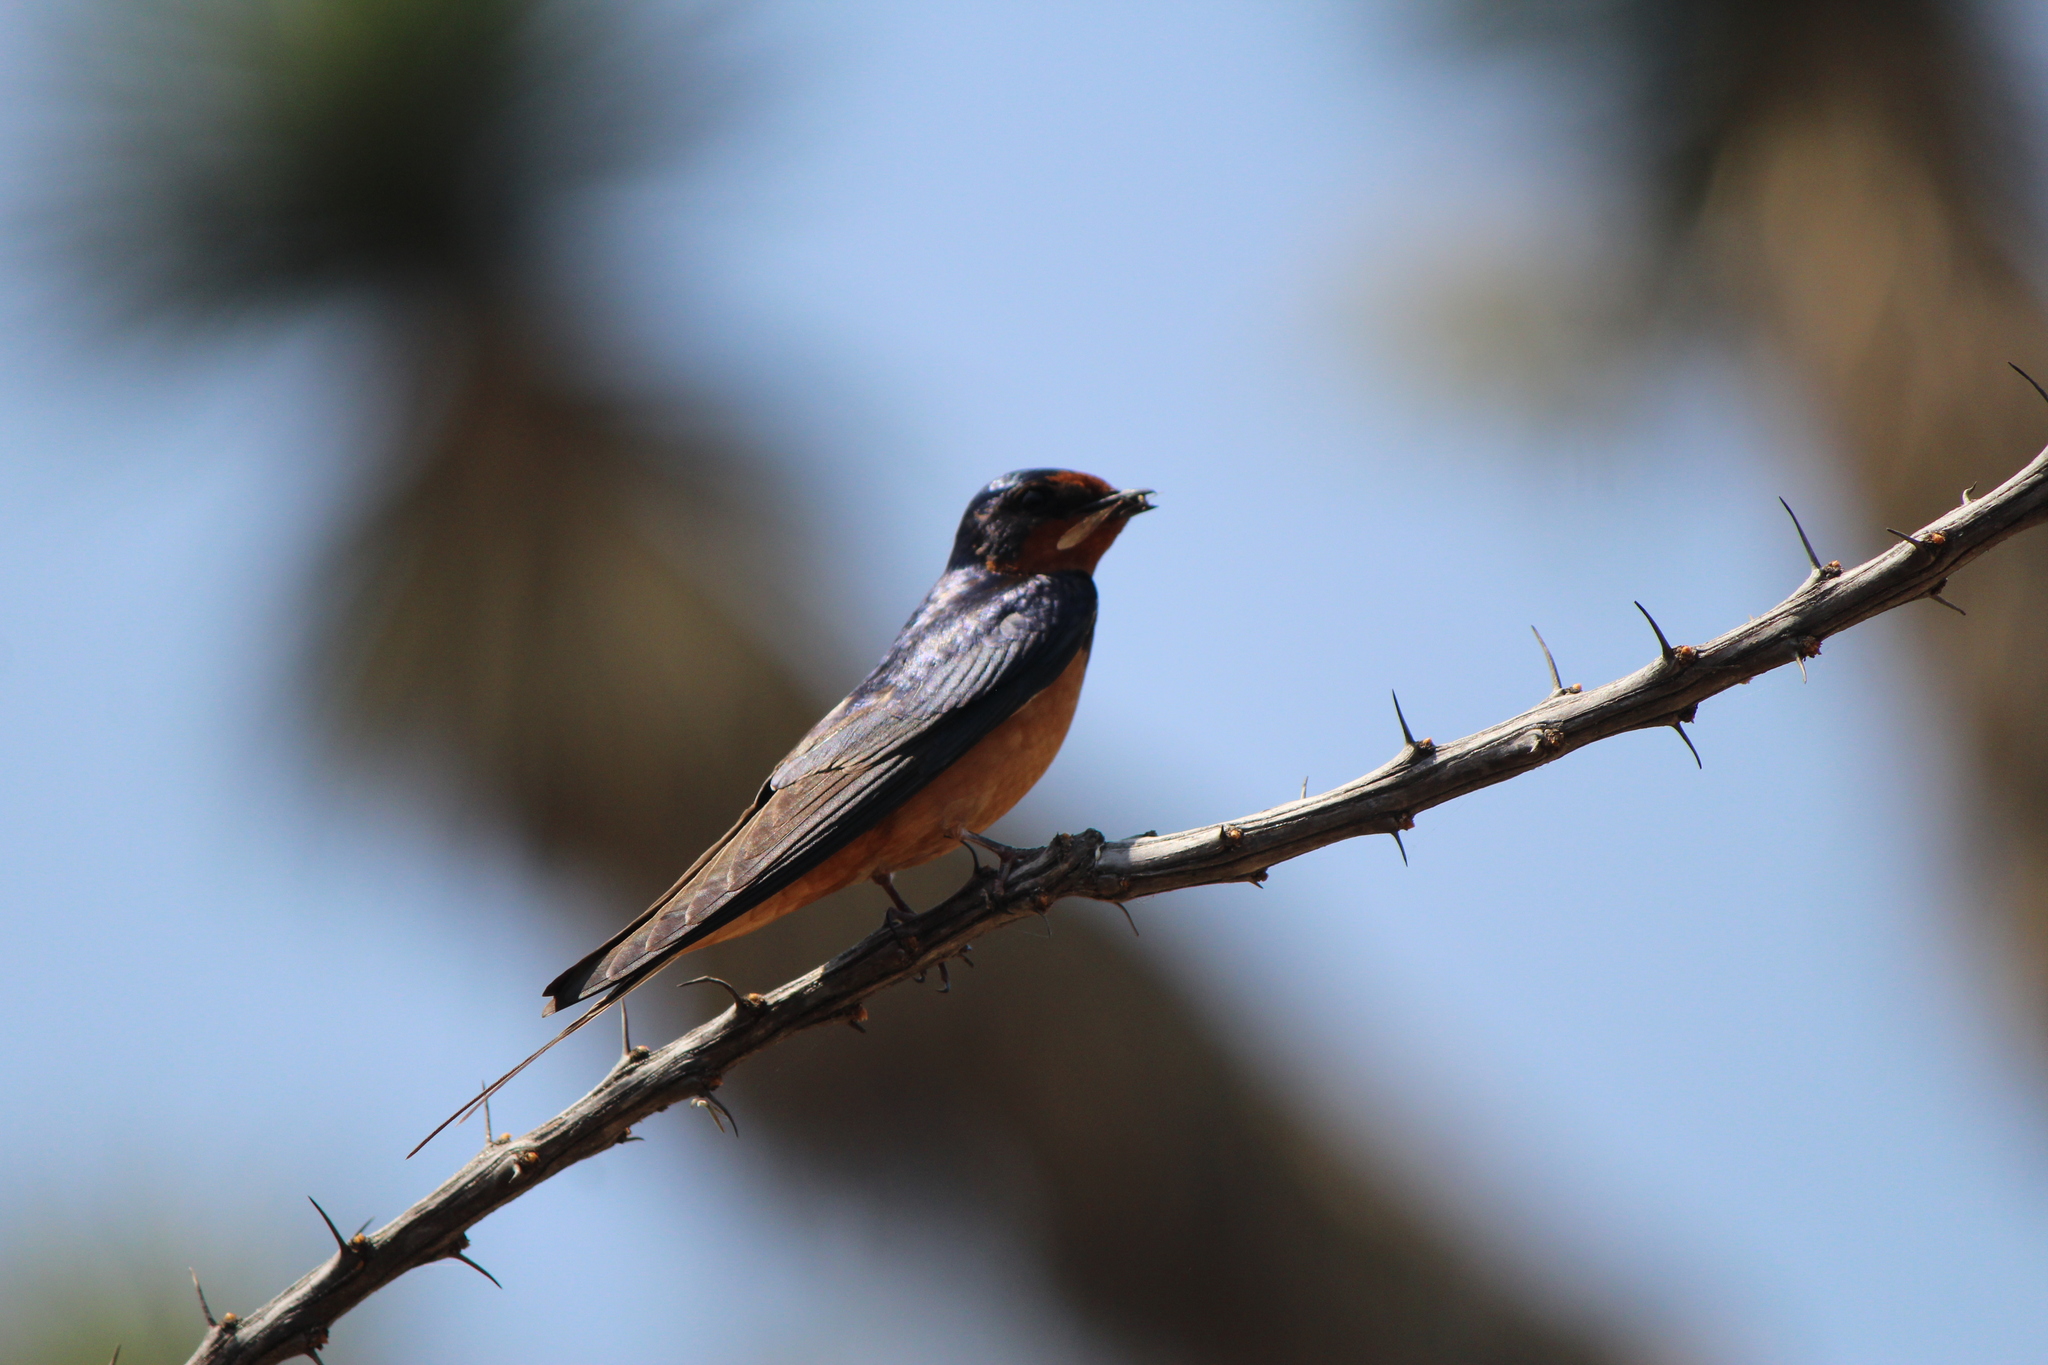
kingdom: Animalia
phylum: Chordata
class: Aves
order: Passeriformes
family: Hirundinidae
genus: Hirundo
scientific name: Hirundo rustica
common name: Barn swallow
